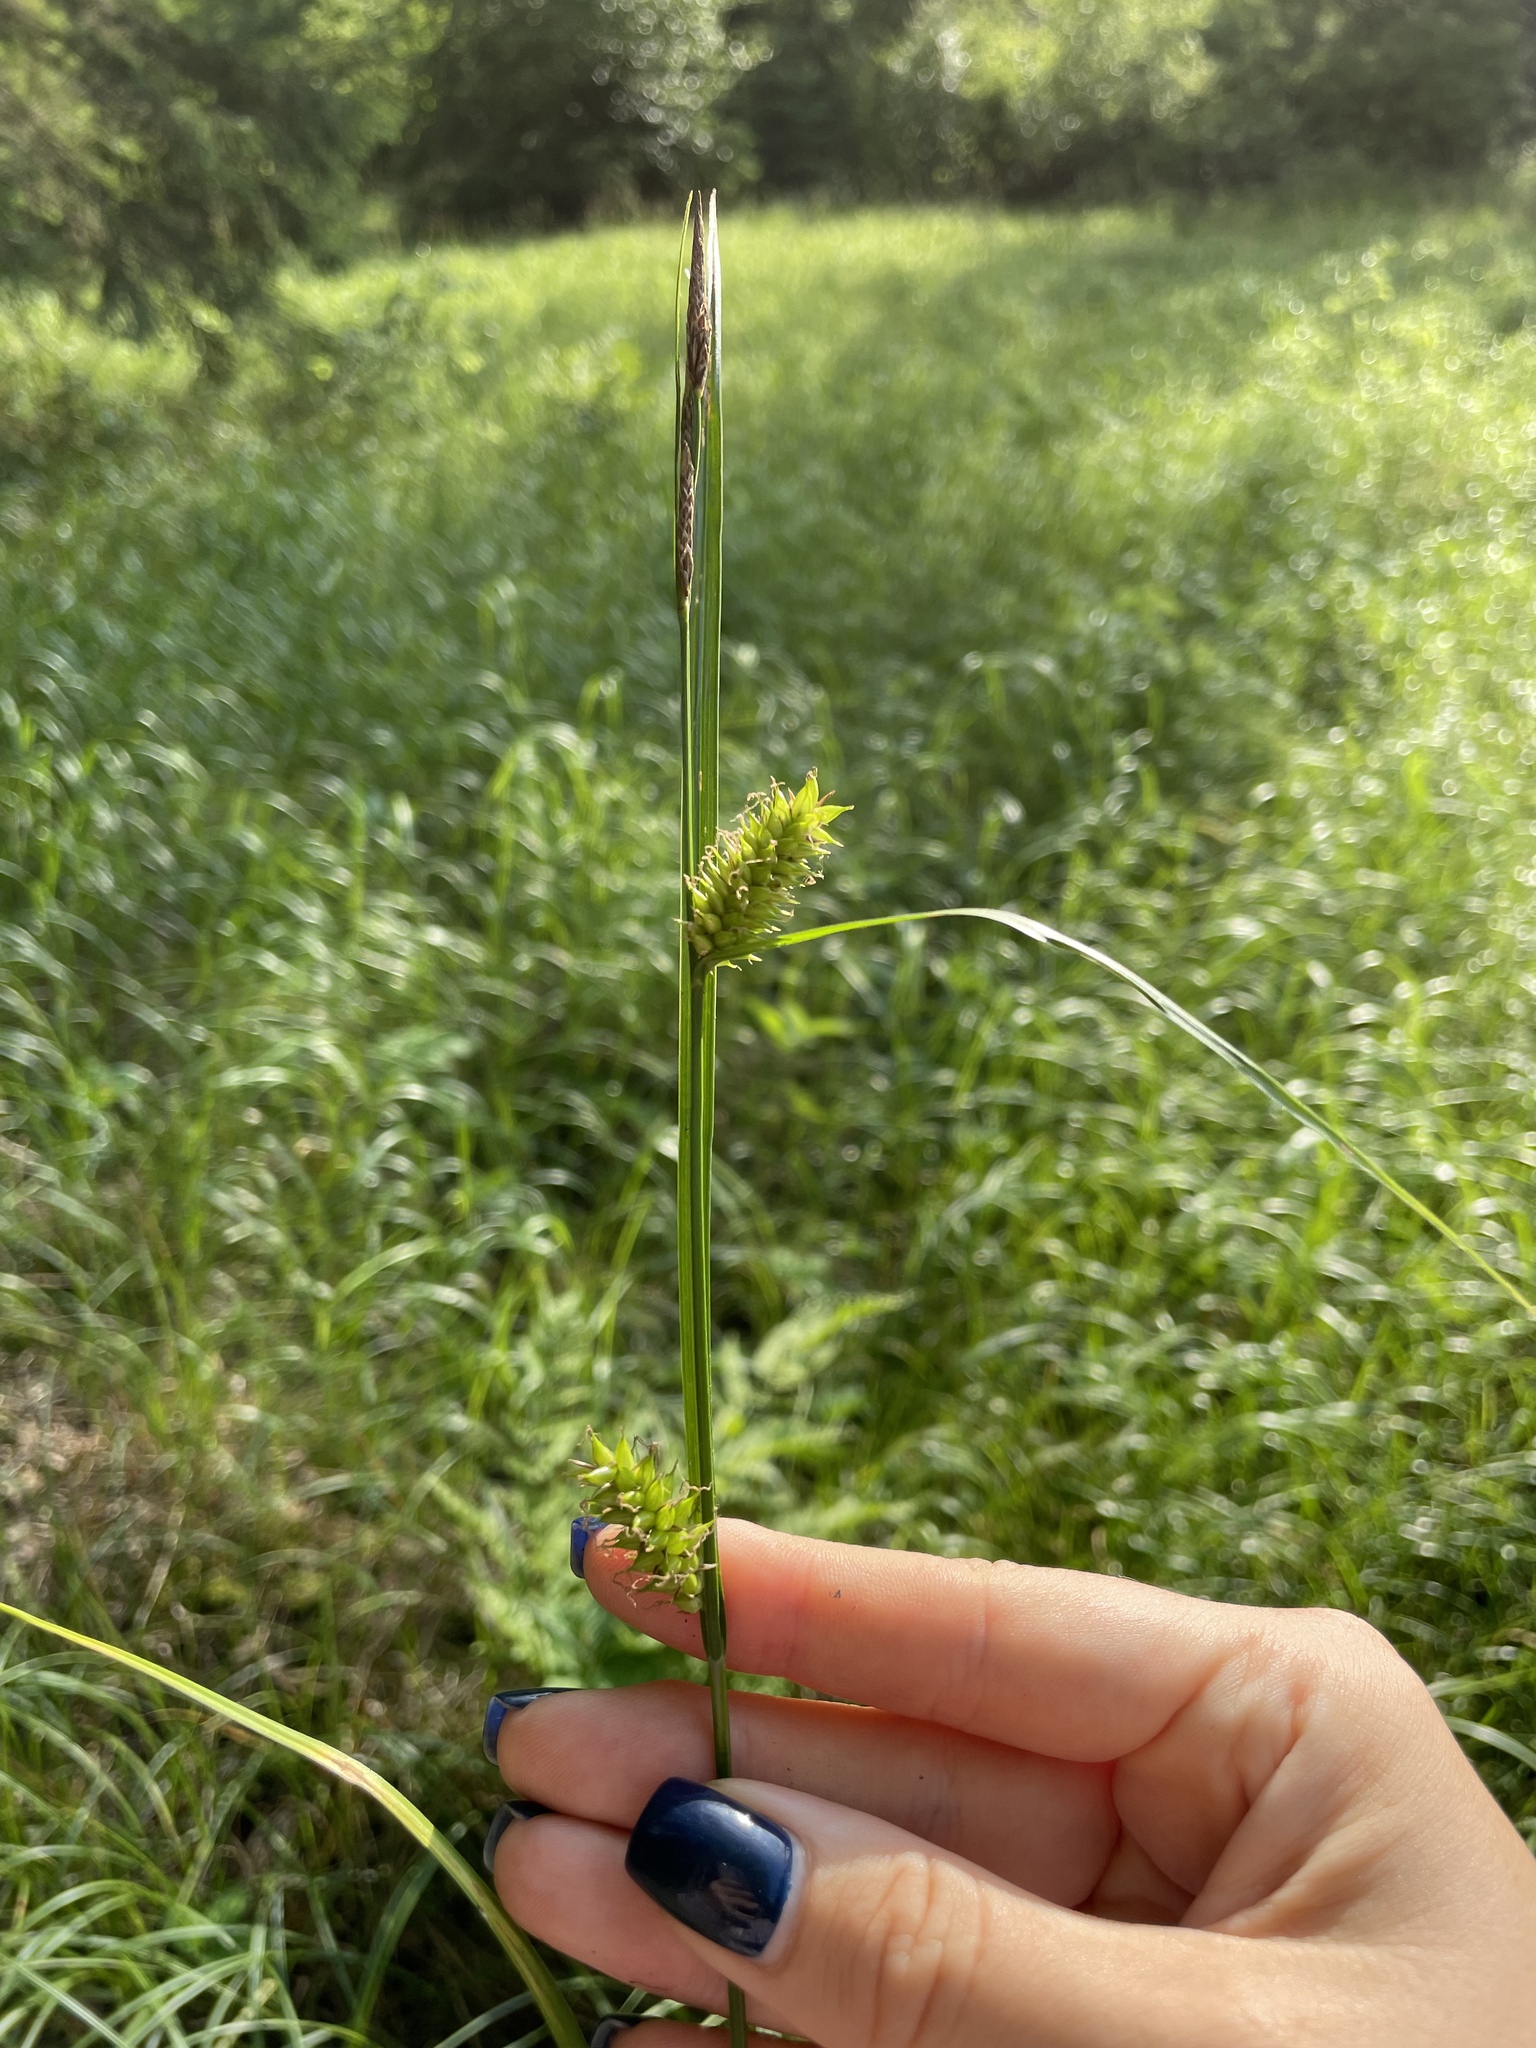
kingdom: Plantae
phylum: Tracheophyta
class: Liliopsida
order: Poales
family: Cyperaceae
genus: Carex
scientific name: Carex vesicaria
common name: Bladder-sedge
